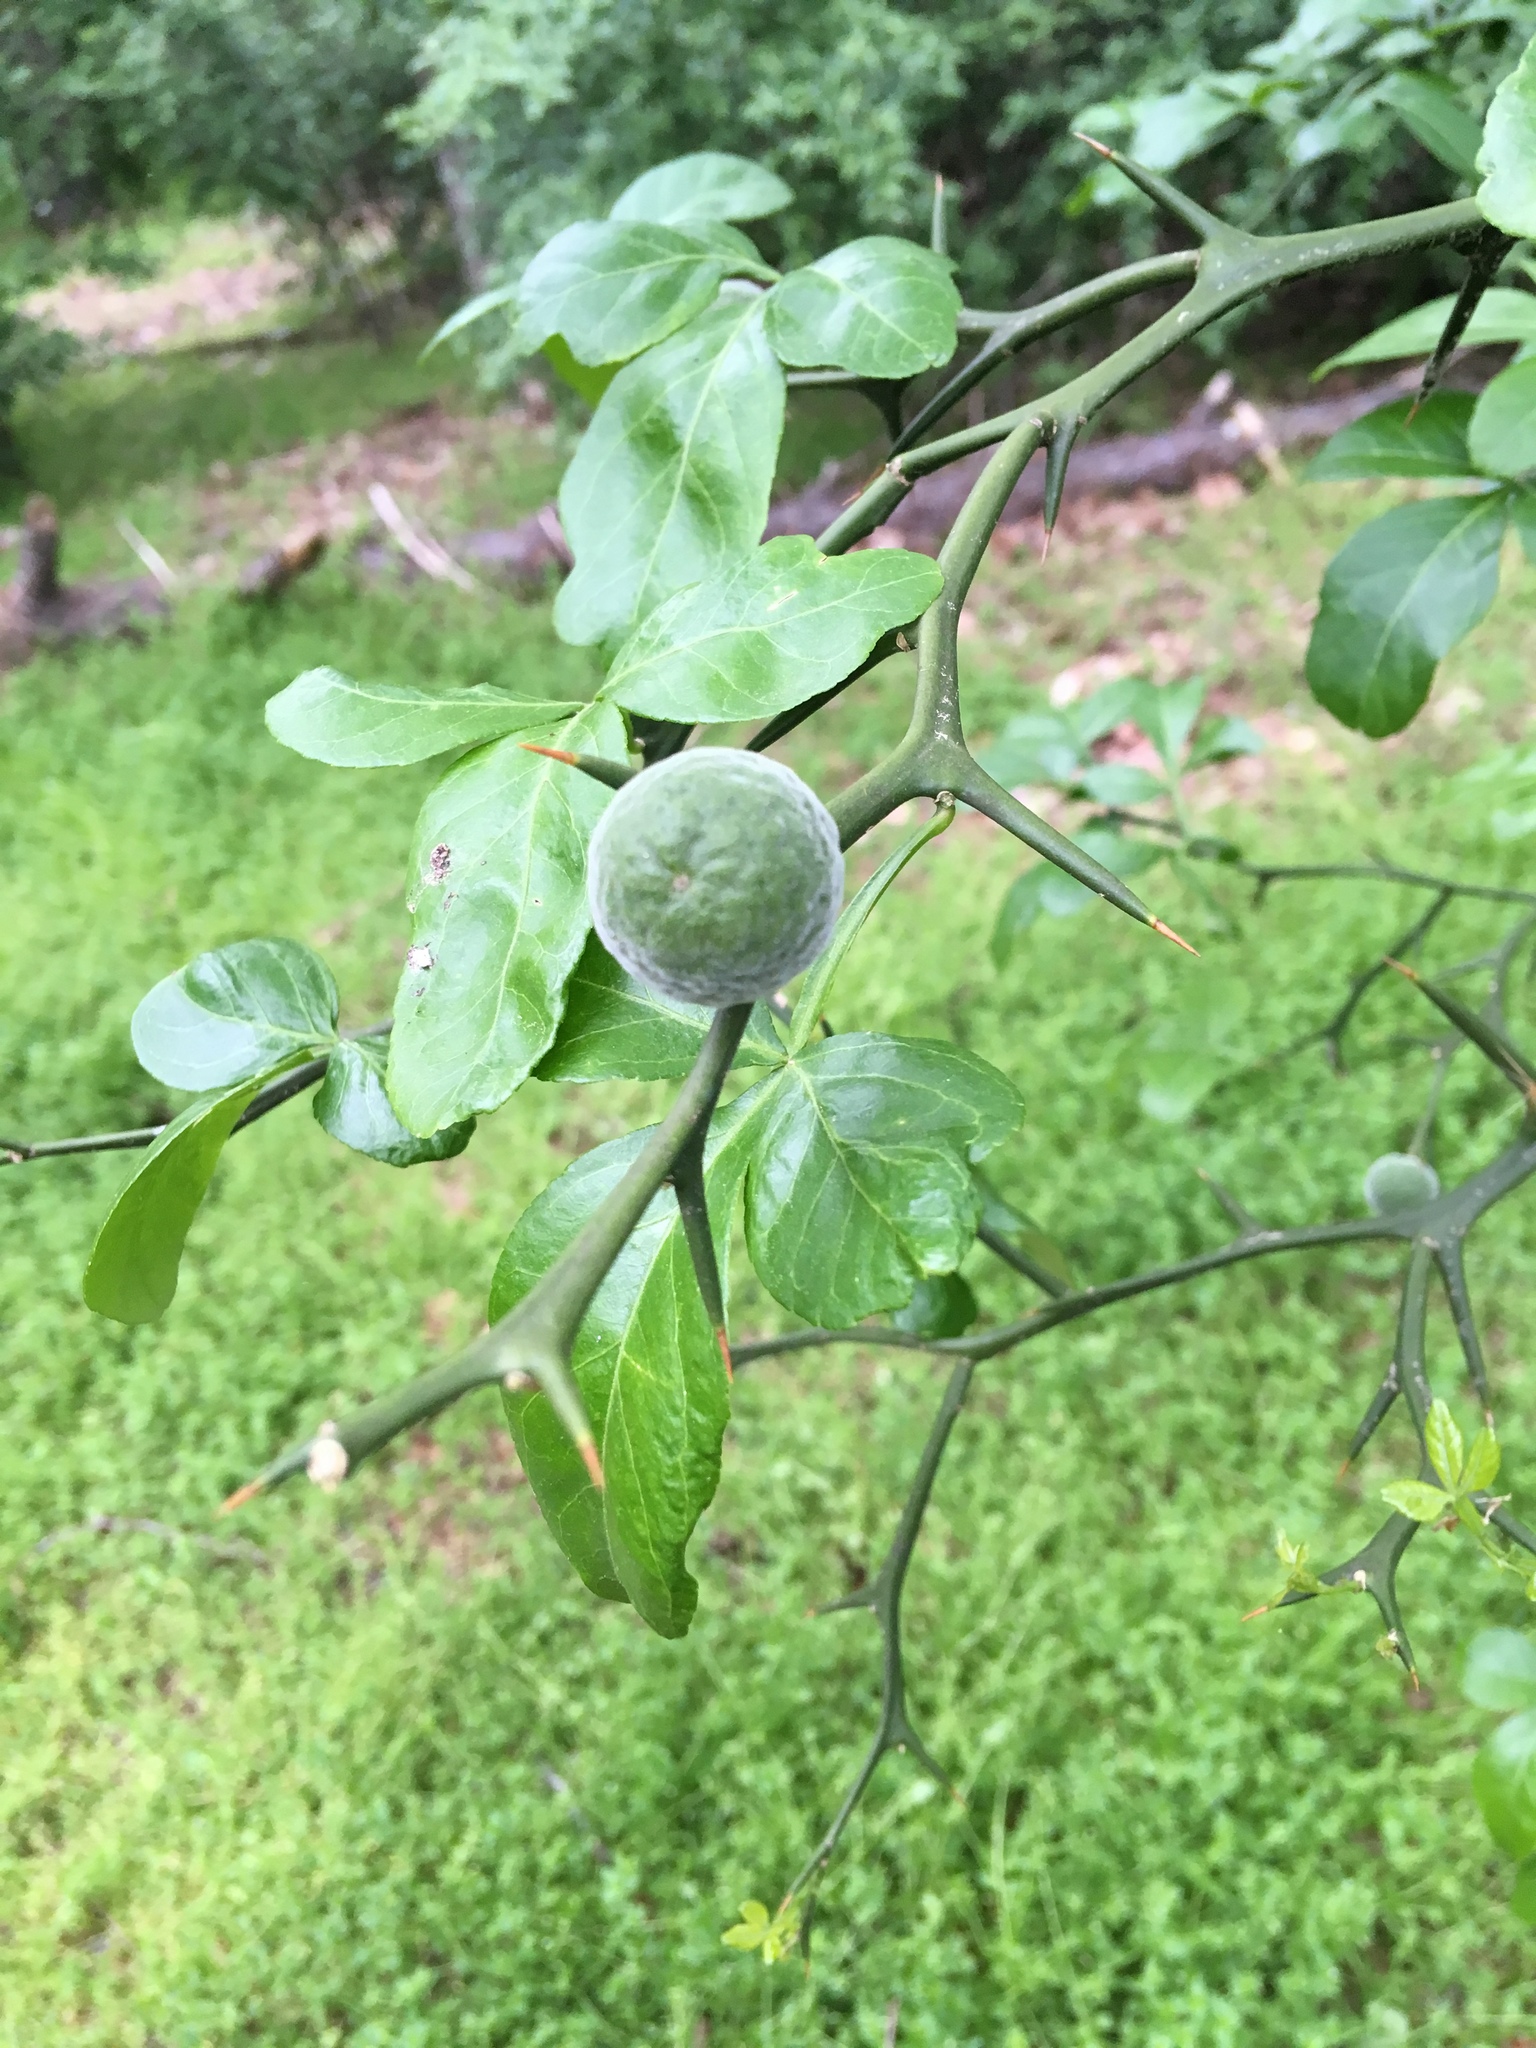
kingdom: Plantae
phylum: Tracheophyta
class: Magnoliopsida
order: Sapindales
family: Rutaceae
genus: Citrus
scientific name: Citrus trifoliata
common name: Japanese bitter-orange
